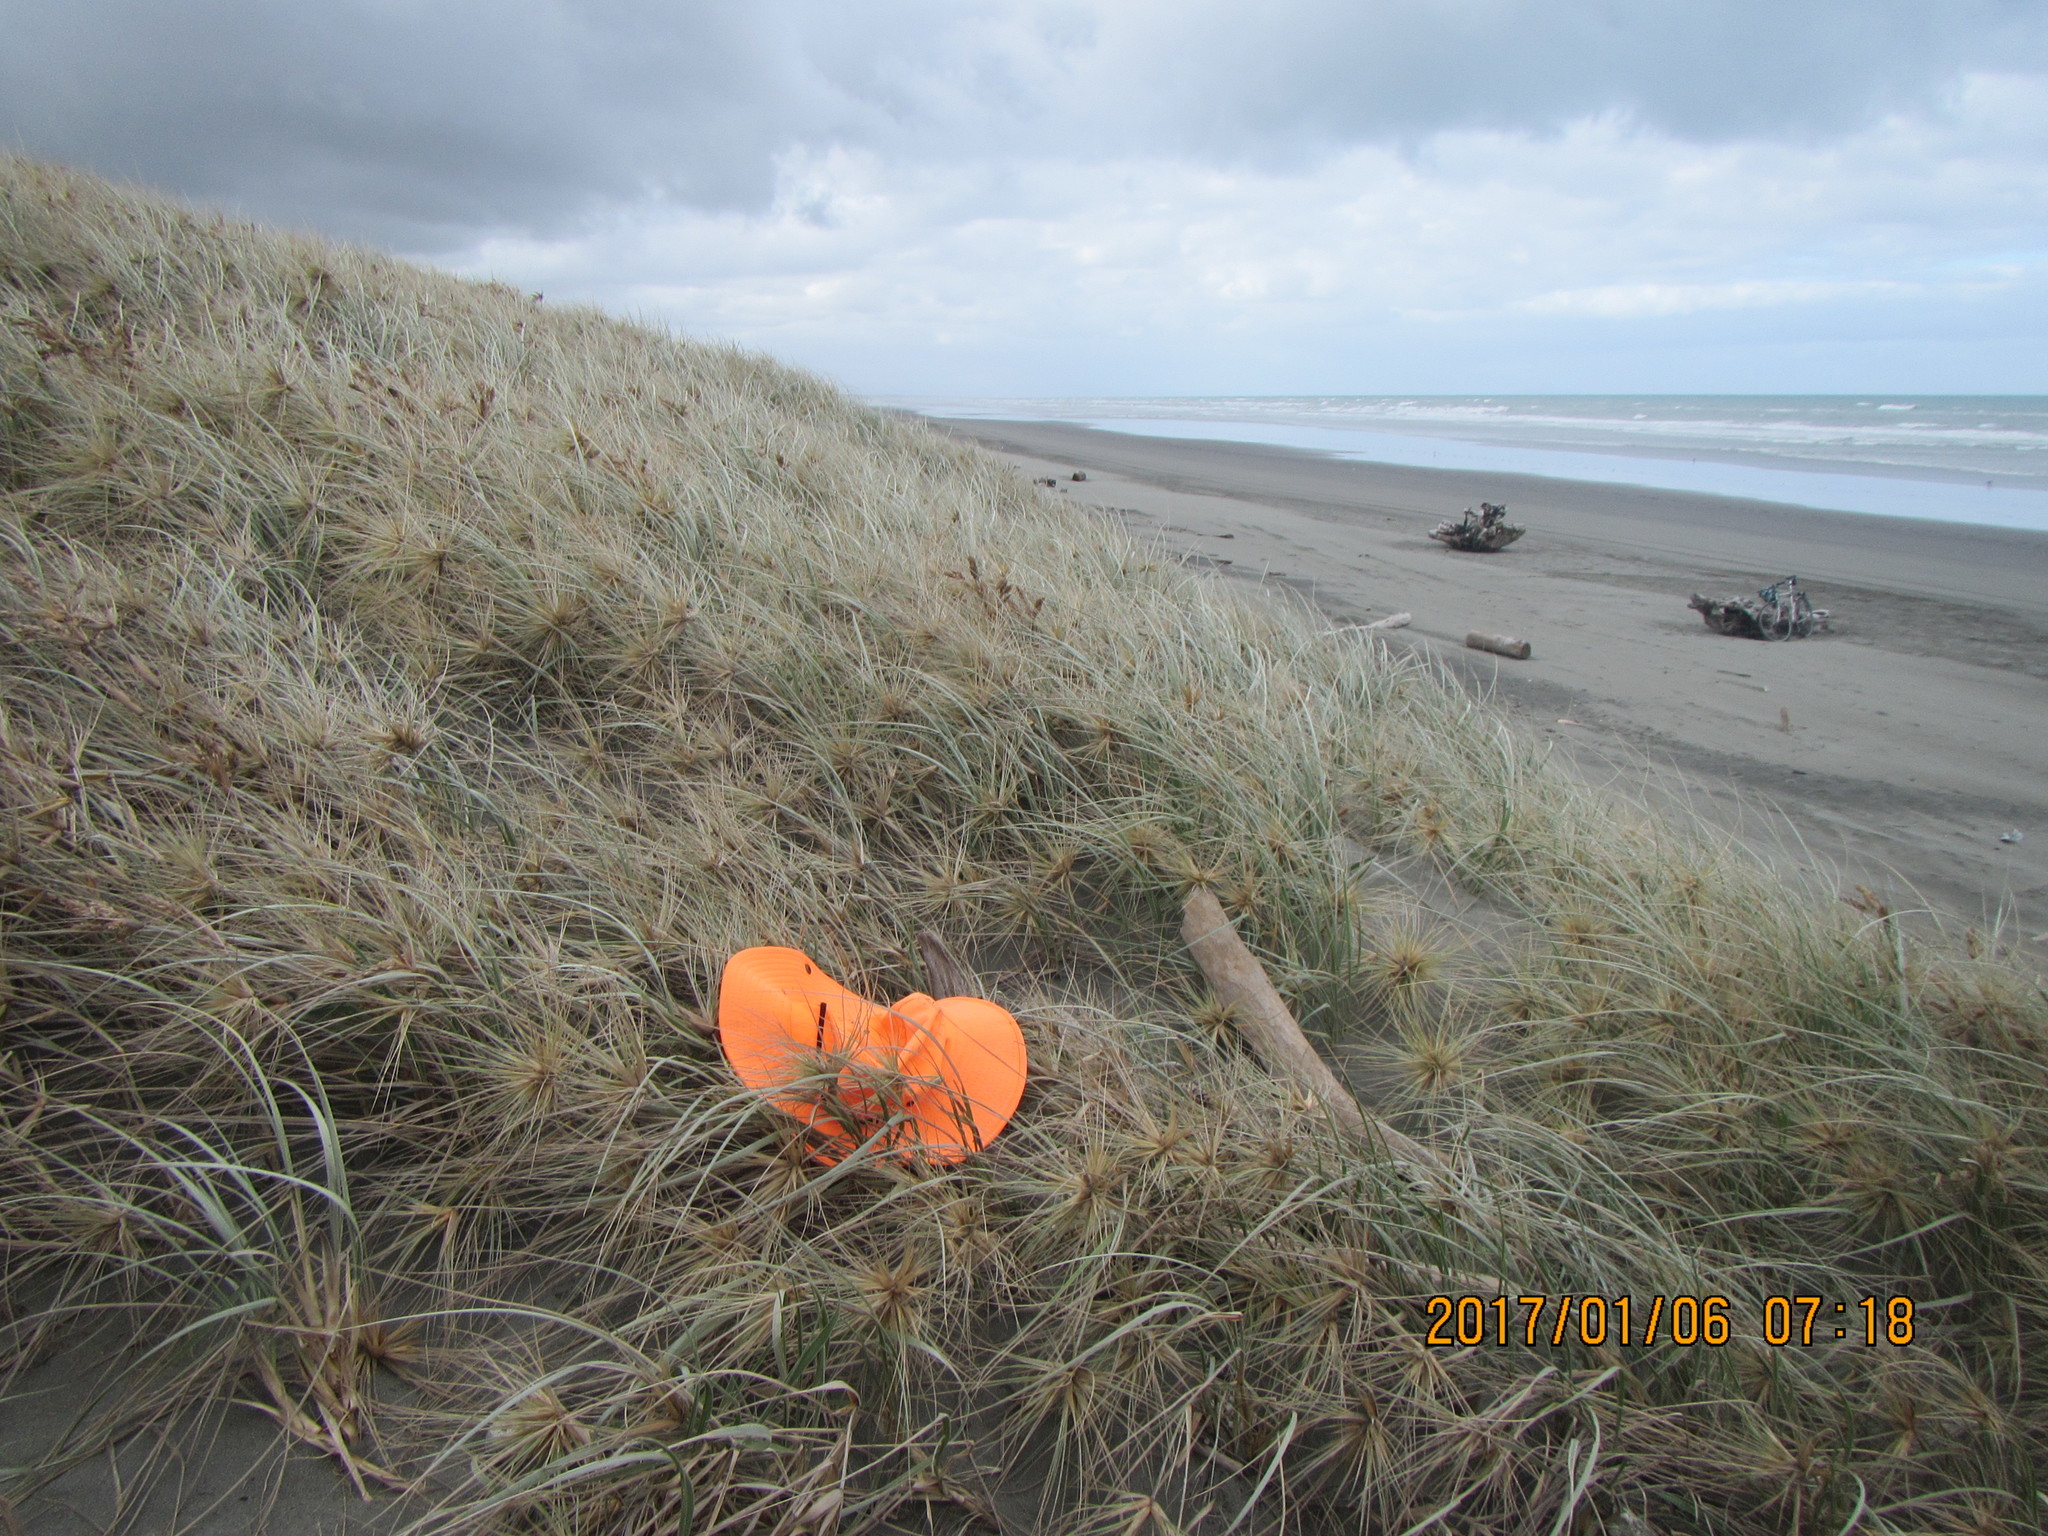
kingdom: Animalia
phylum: Arthropoda
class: Insecta
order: Coleoptera
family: Curculionidae
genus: Mesites
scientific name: Mesites pallidipennis
